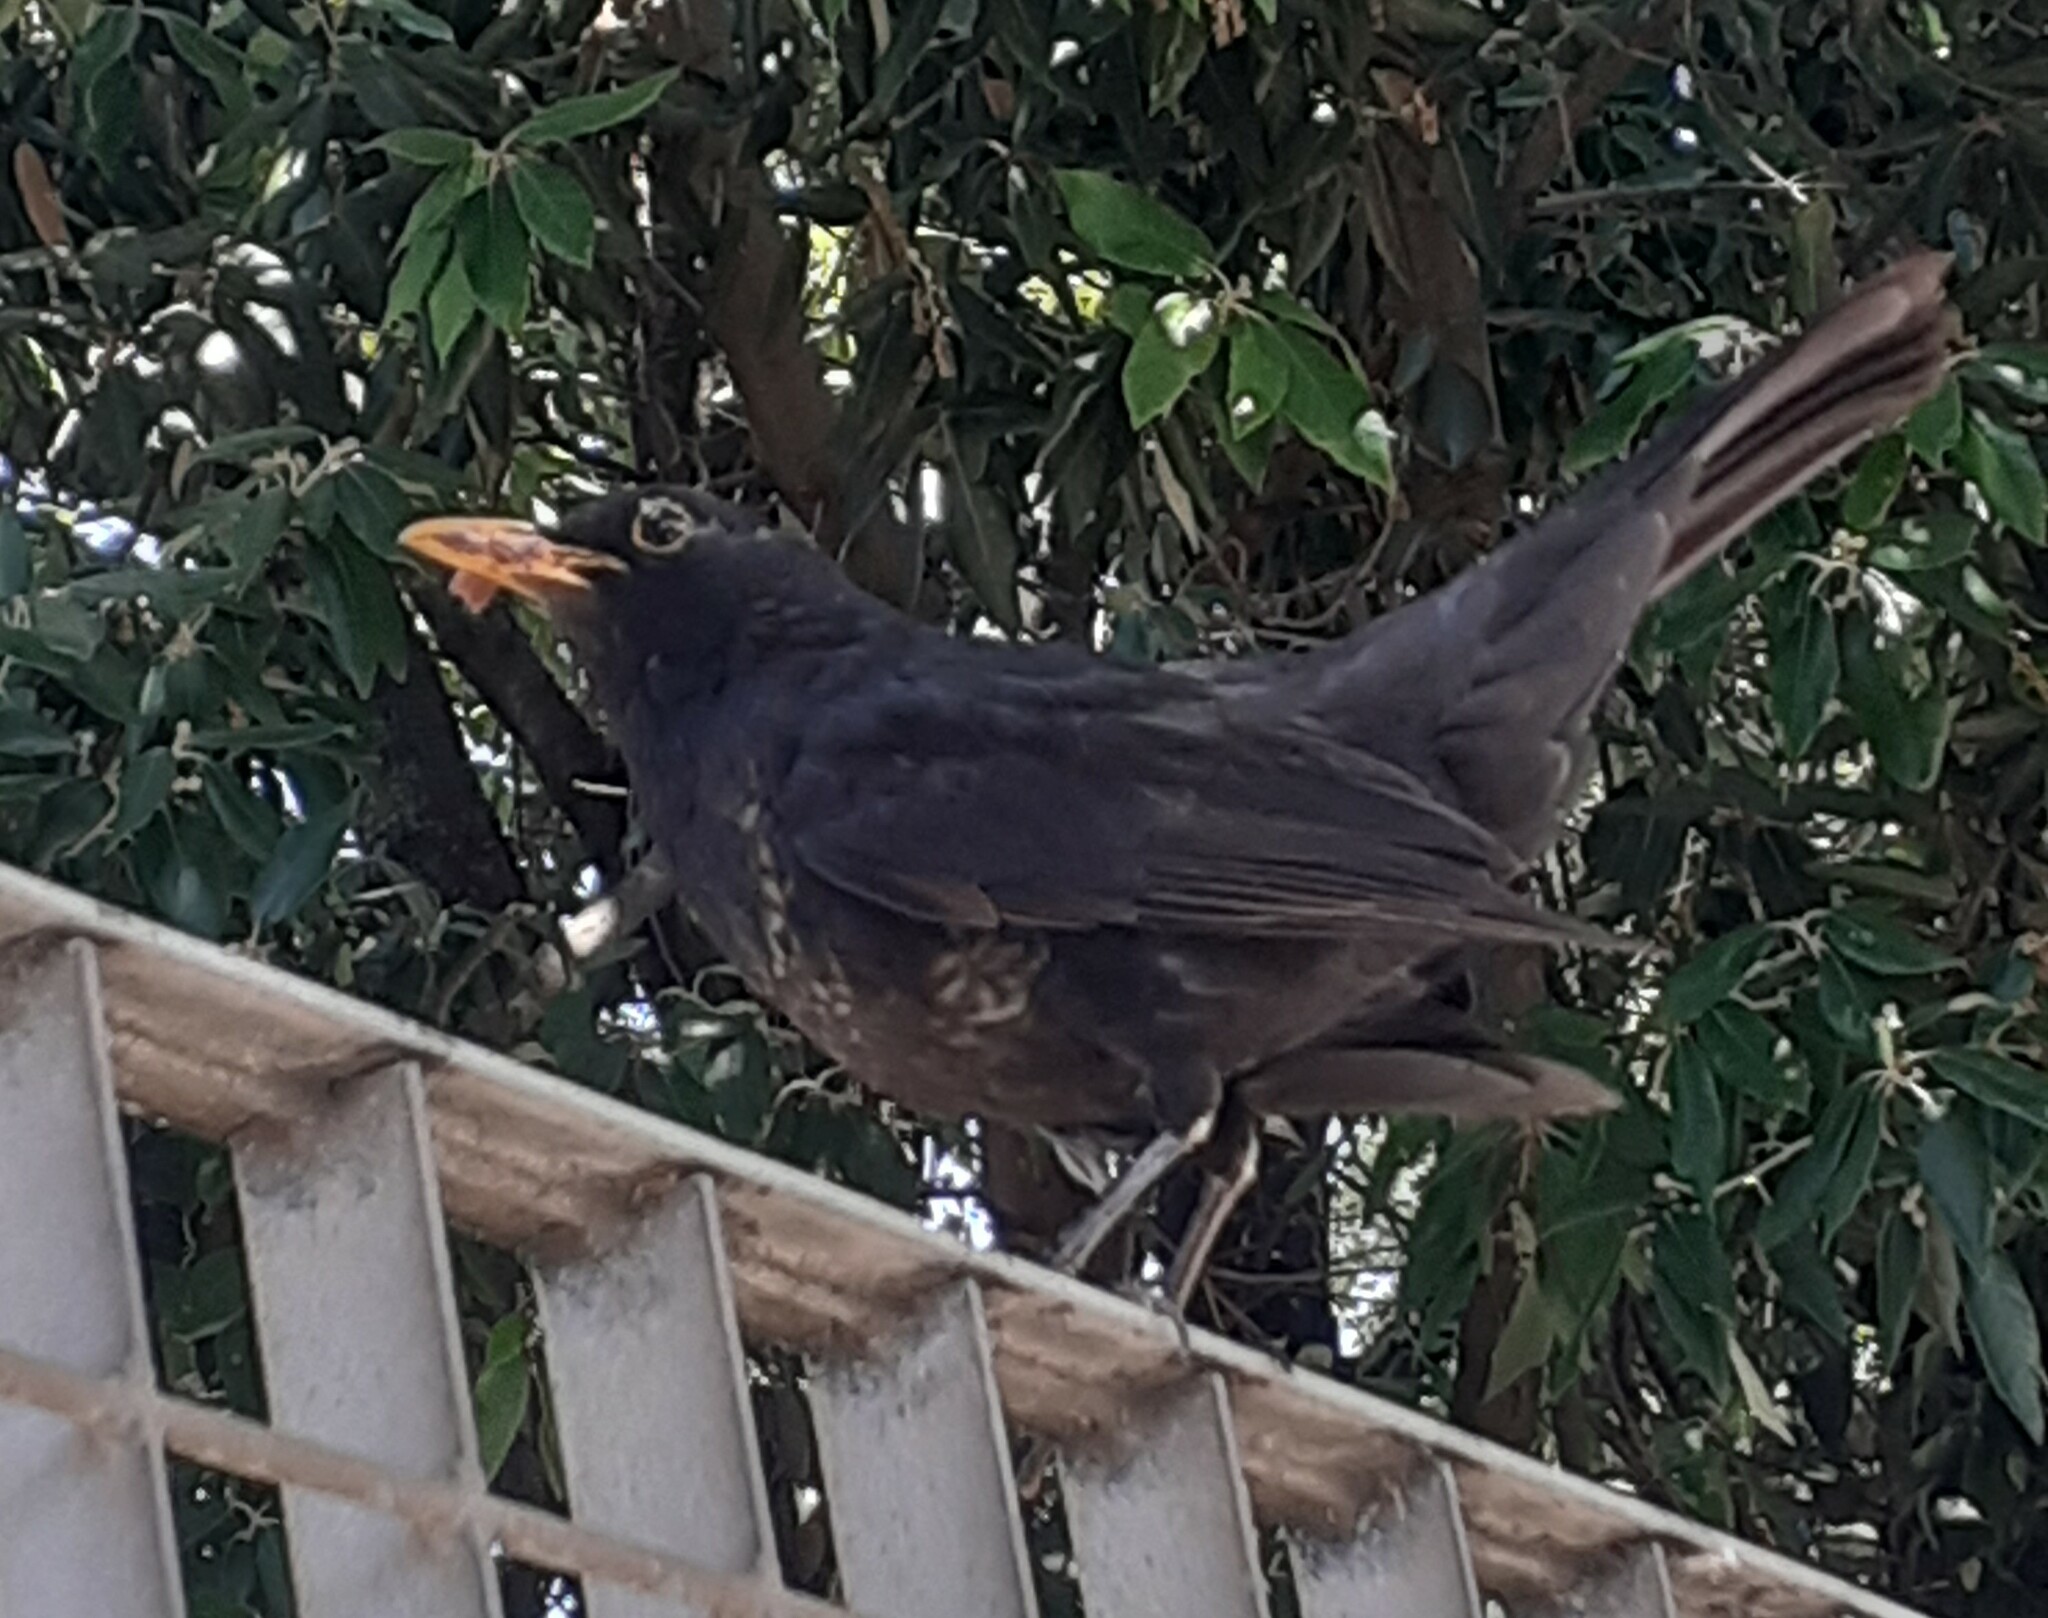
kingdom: Animalia
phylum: Chordata
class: Aves
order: Passeriformes
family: Turdidae
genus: Turdus
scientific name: Turdus merula
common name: Common blackbird
